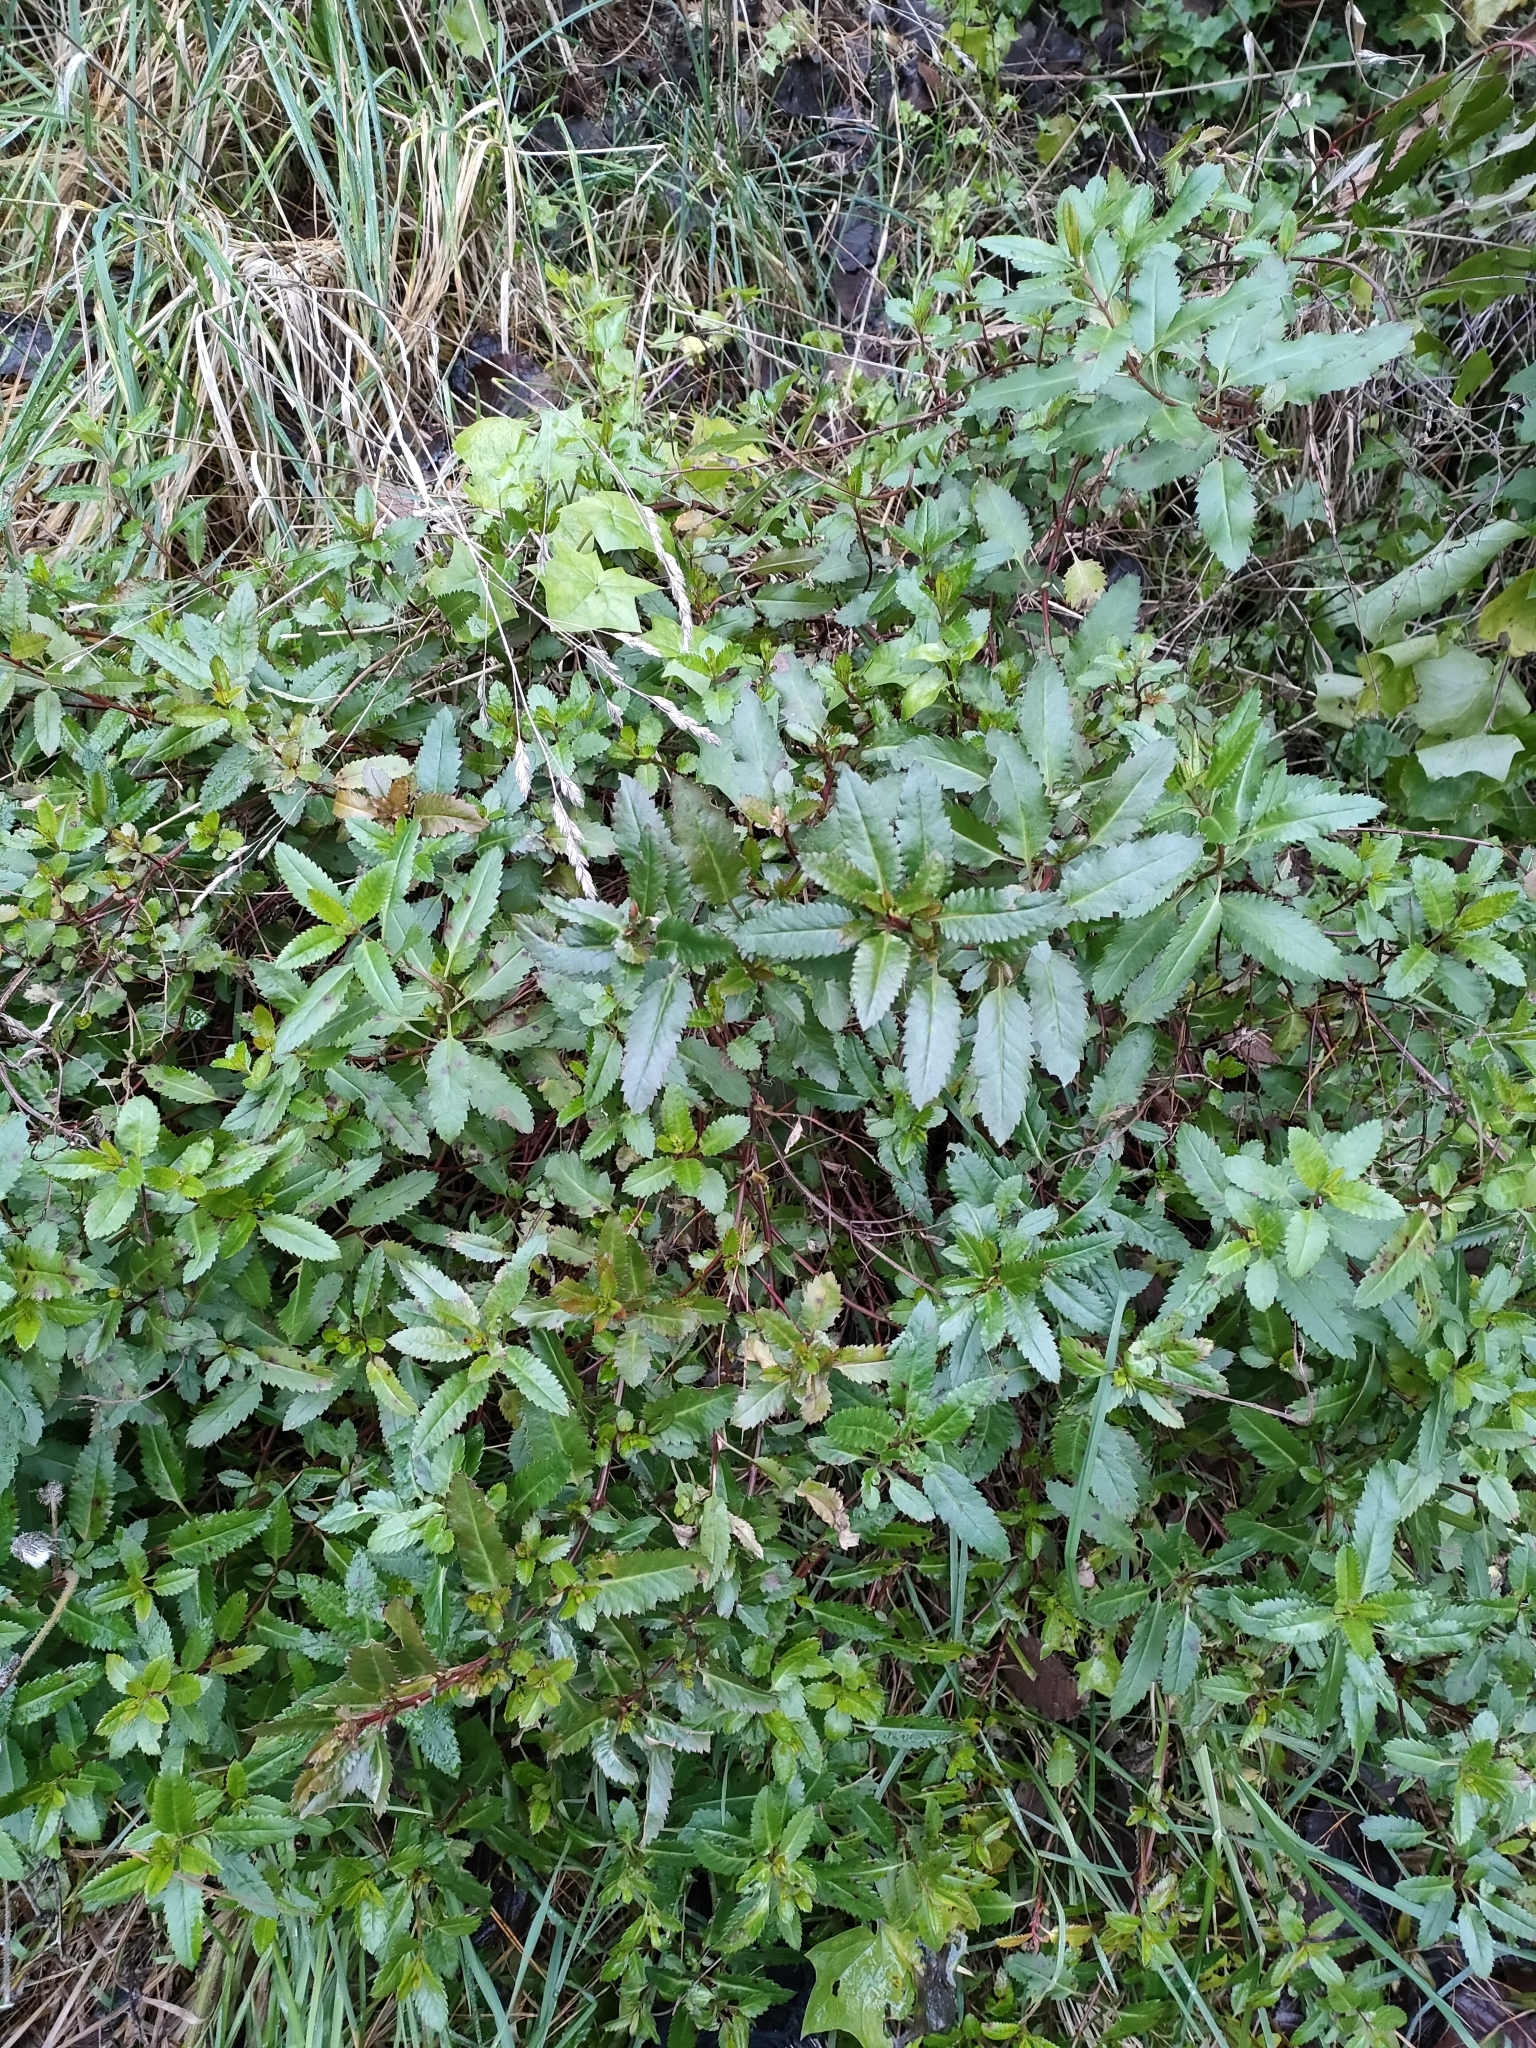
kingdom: Plantae
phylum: Tracheophyta
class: Magnoliopsida
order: Saxifragales
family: Haloragaceae
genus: Haloragis
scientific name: Haloragis erecta
